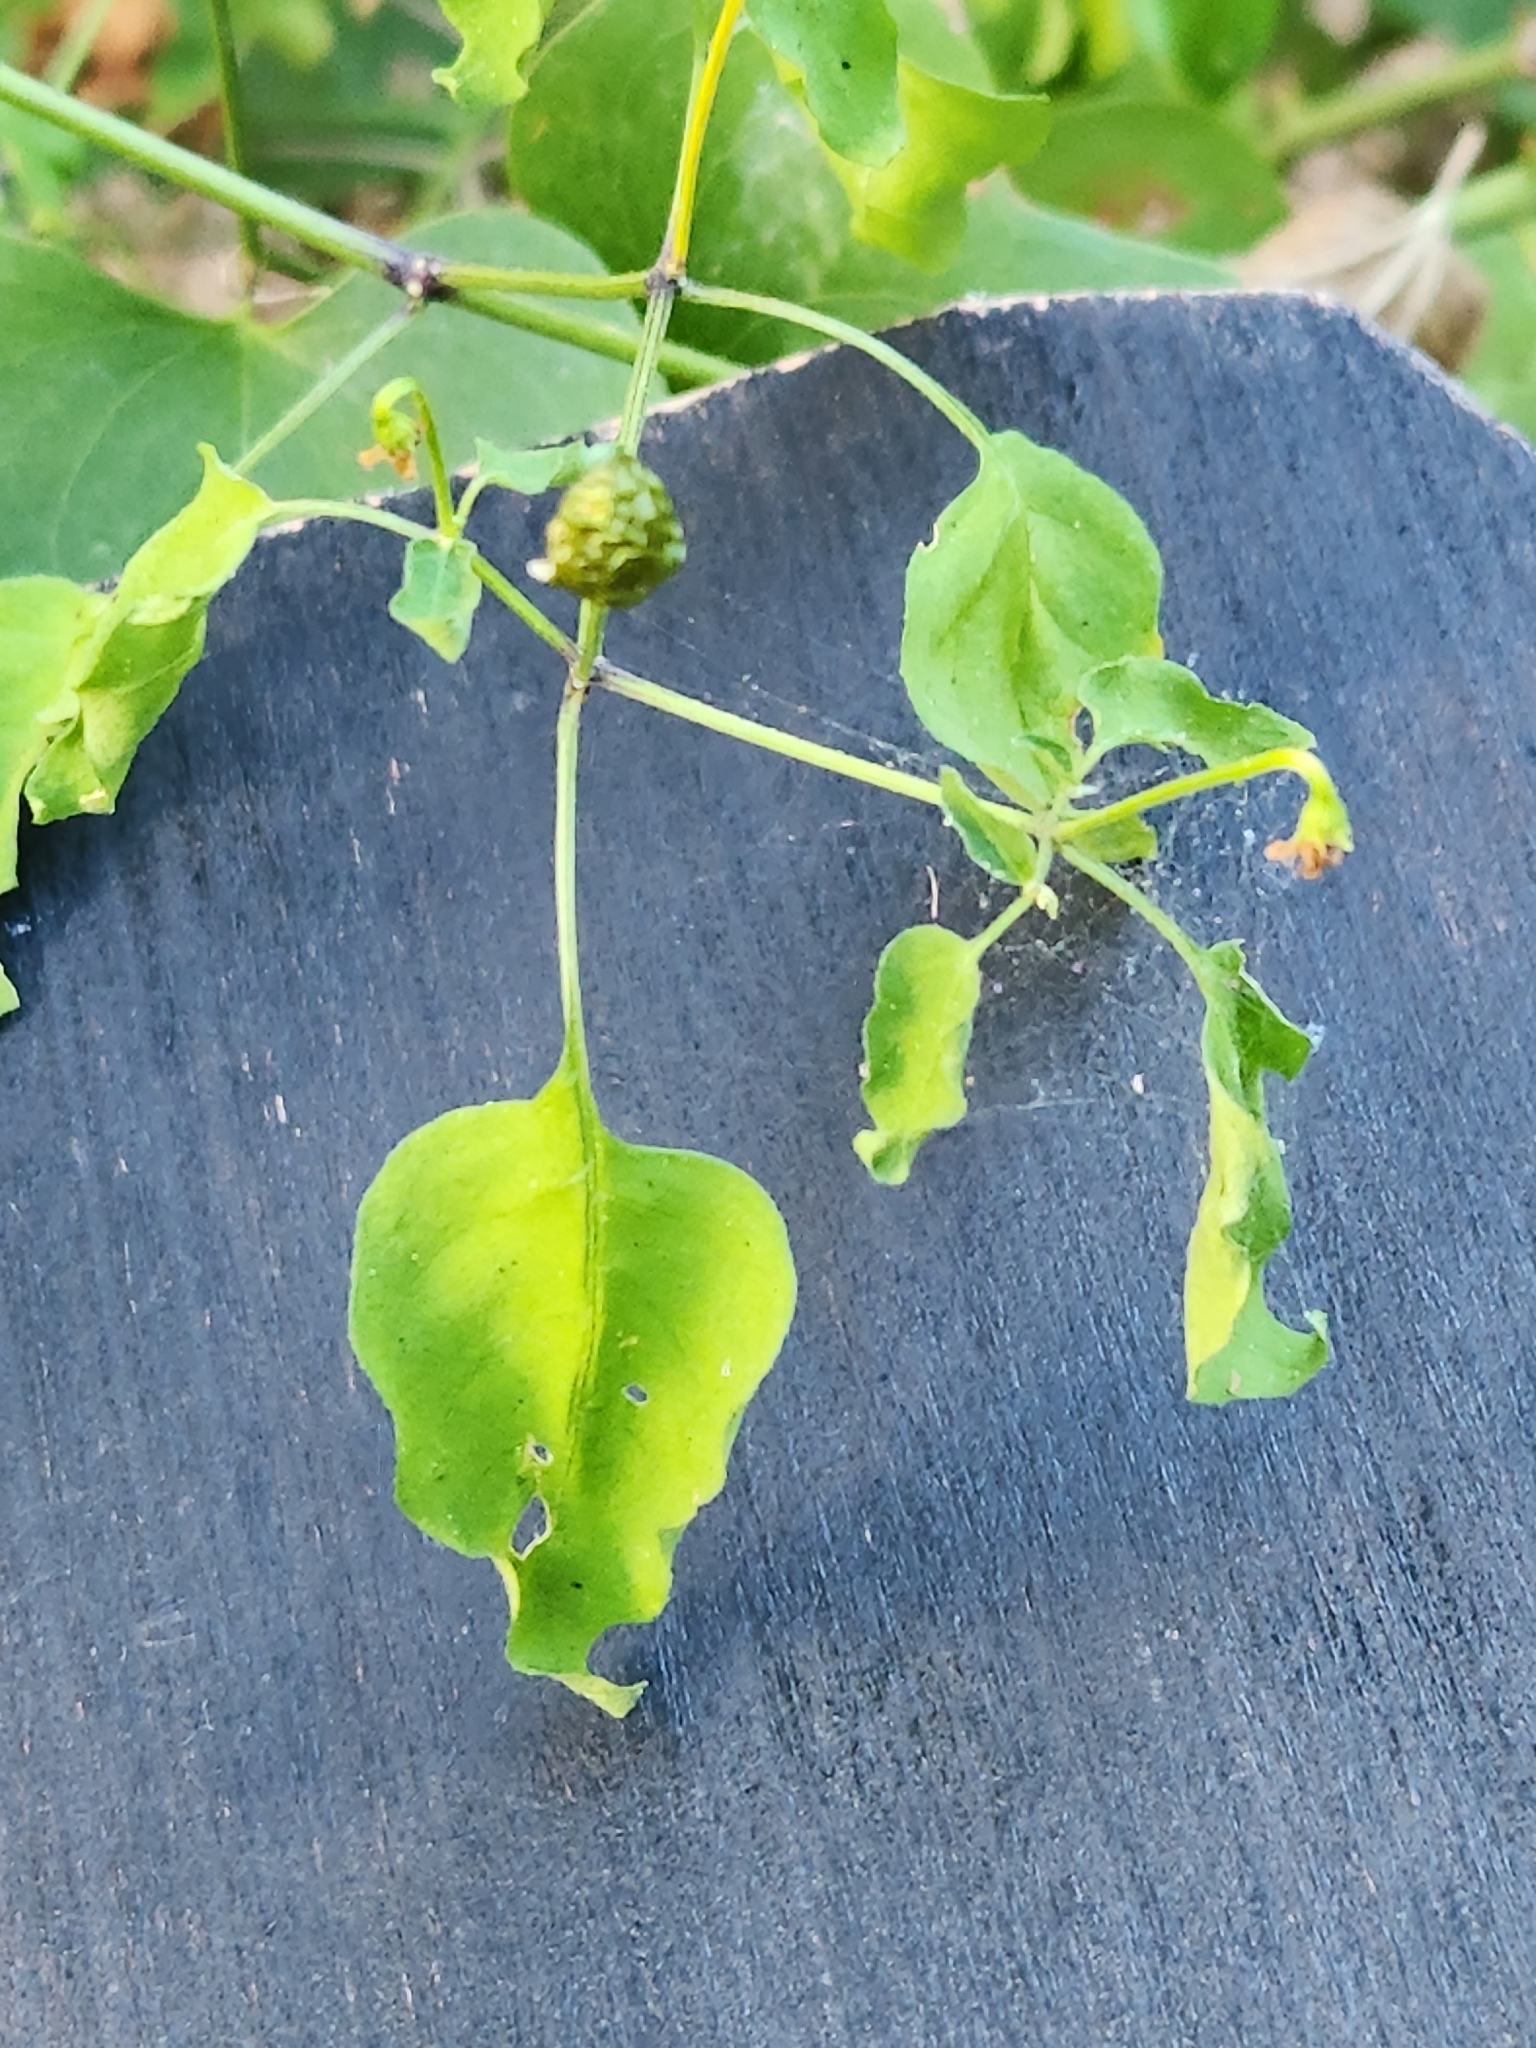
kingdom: Plantae
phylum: Tracheophyta
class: Magnoliopsida
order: Solanales
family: Solanaceae
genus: Capsicum
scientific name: Capsicum annuum
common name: Sweet pepper
